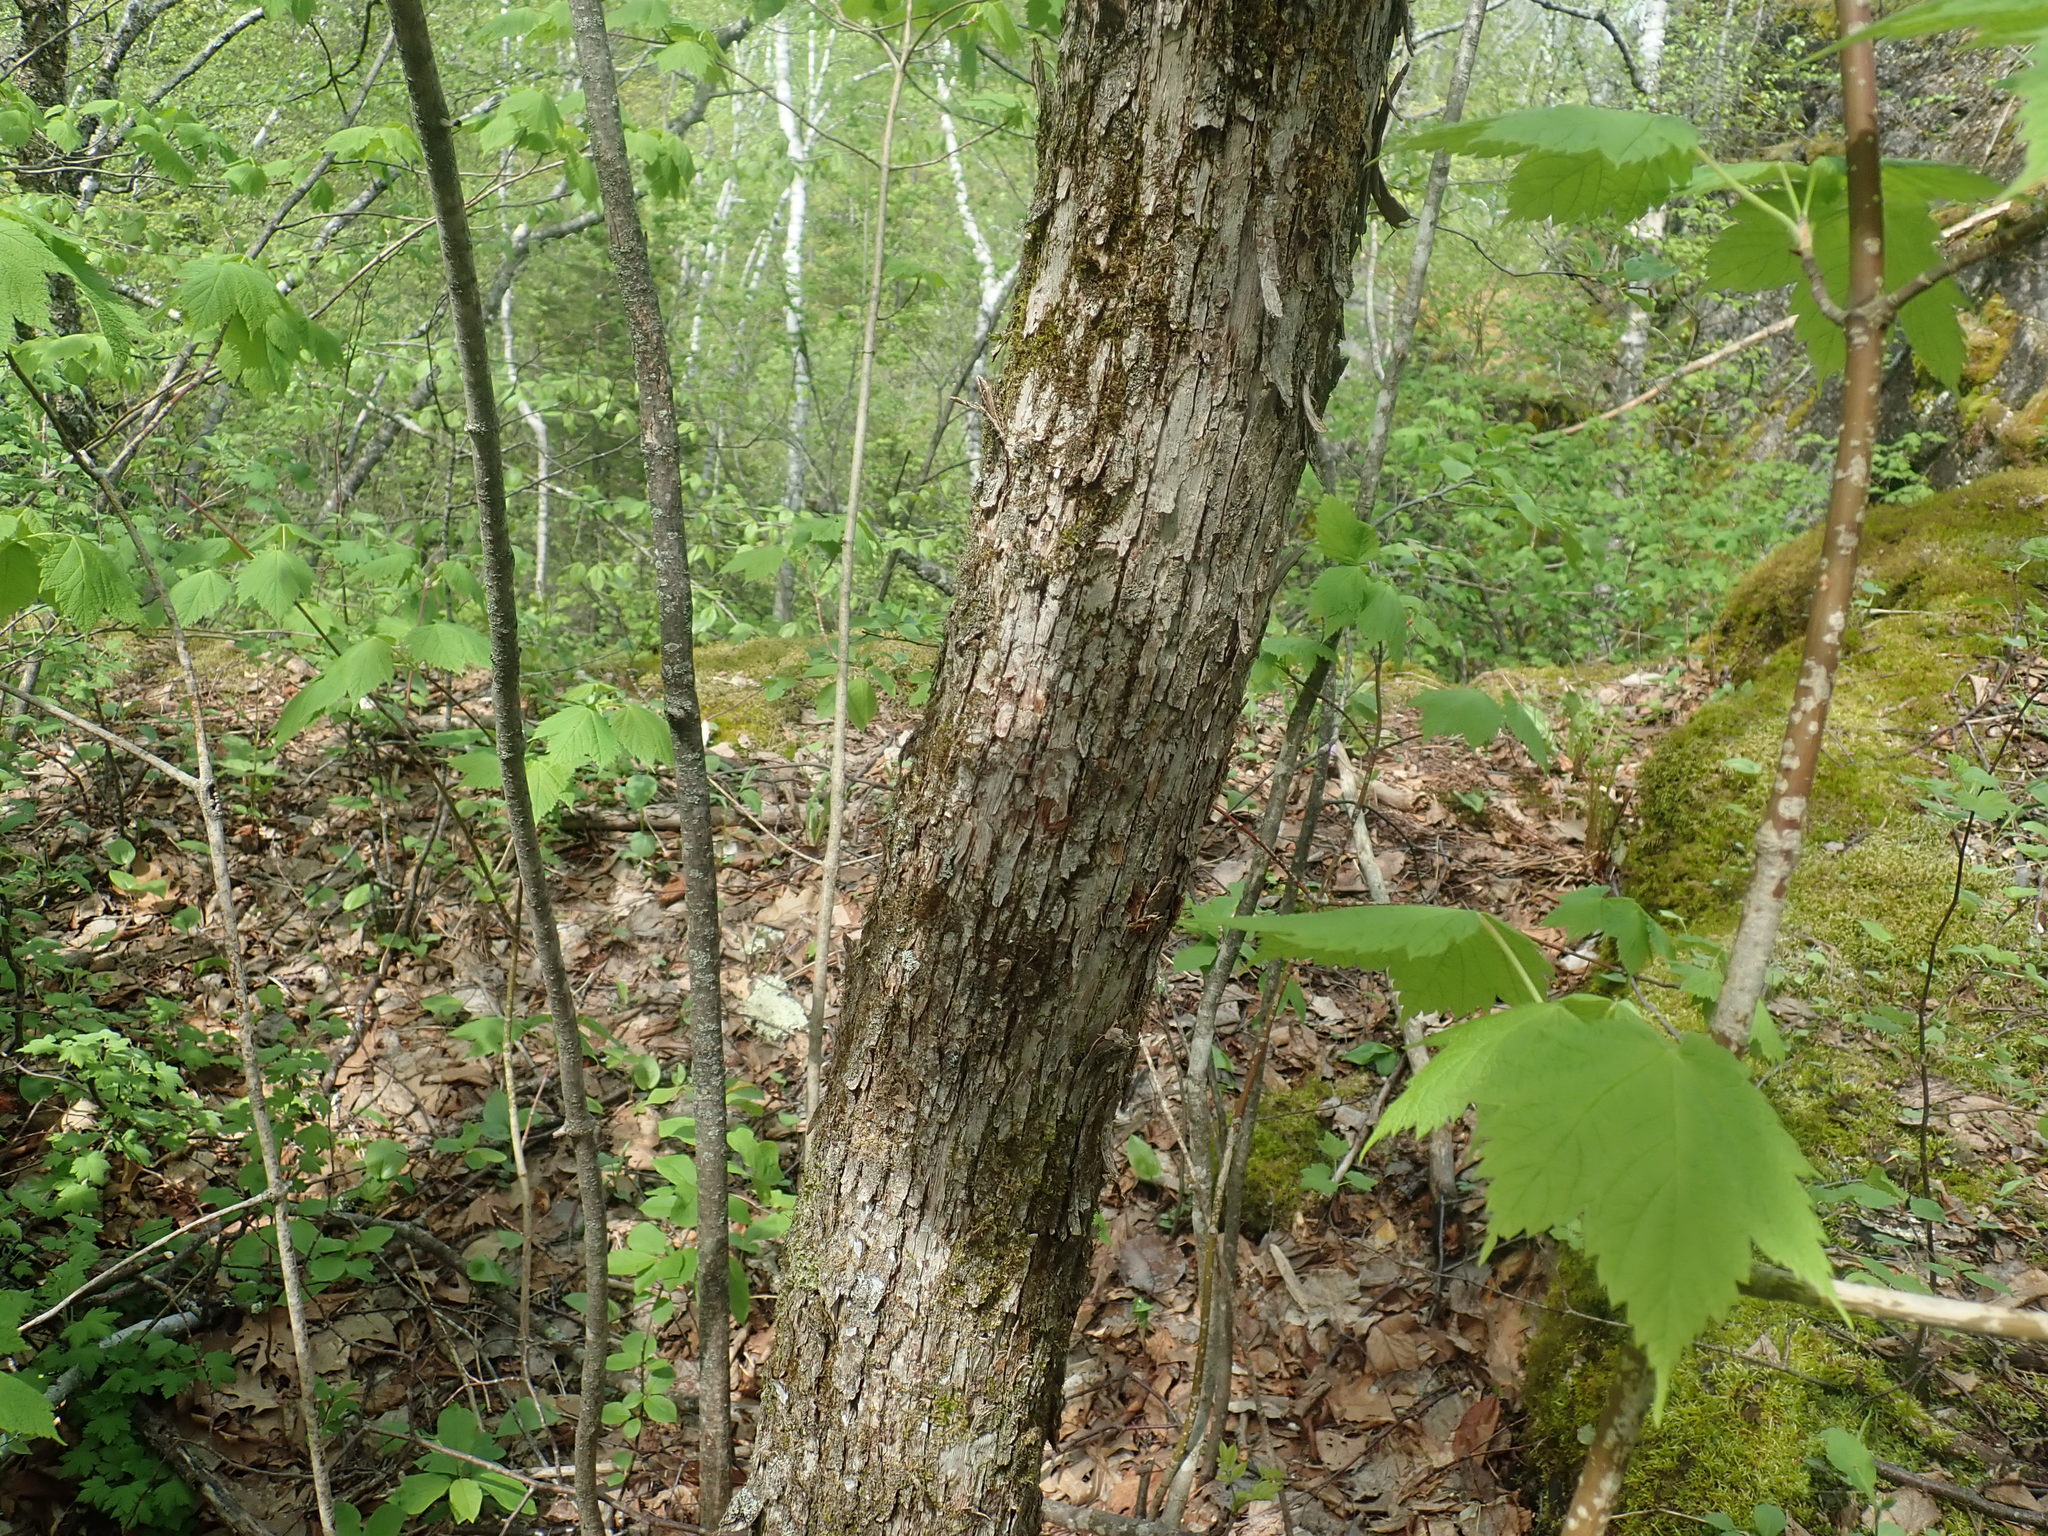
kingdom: Plantae
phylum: Tracheophyta
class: Magnoliopsida
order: Fagales
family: Betulaceae
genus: Ostrya
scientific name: Ostrya virginiana
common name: Ironwood
